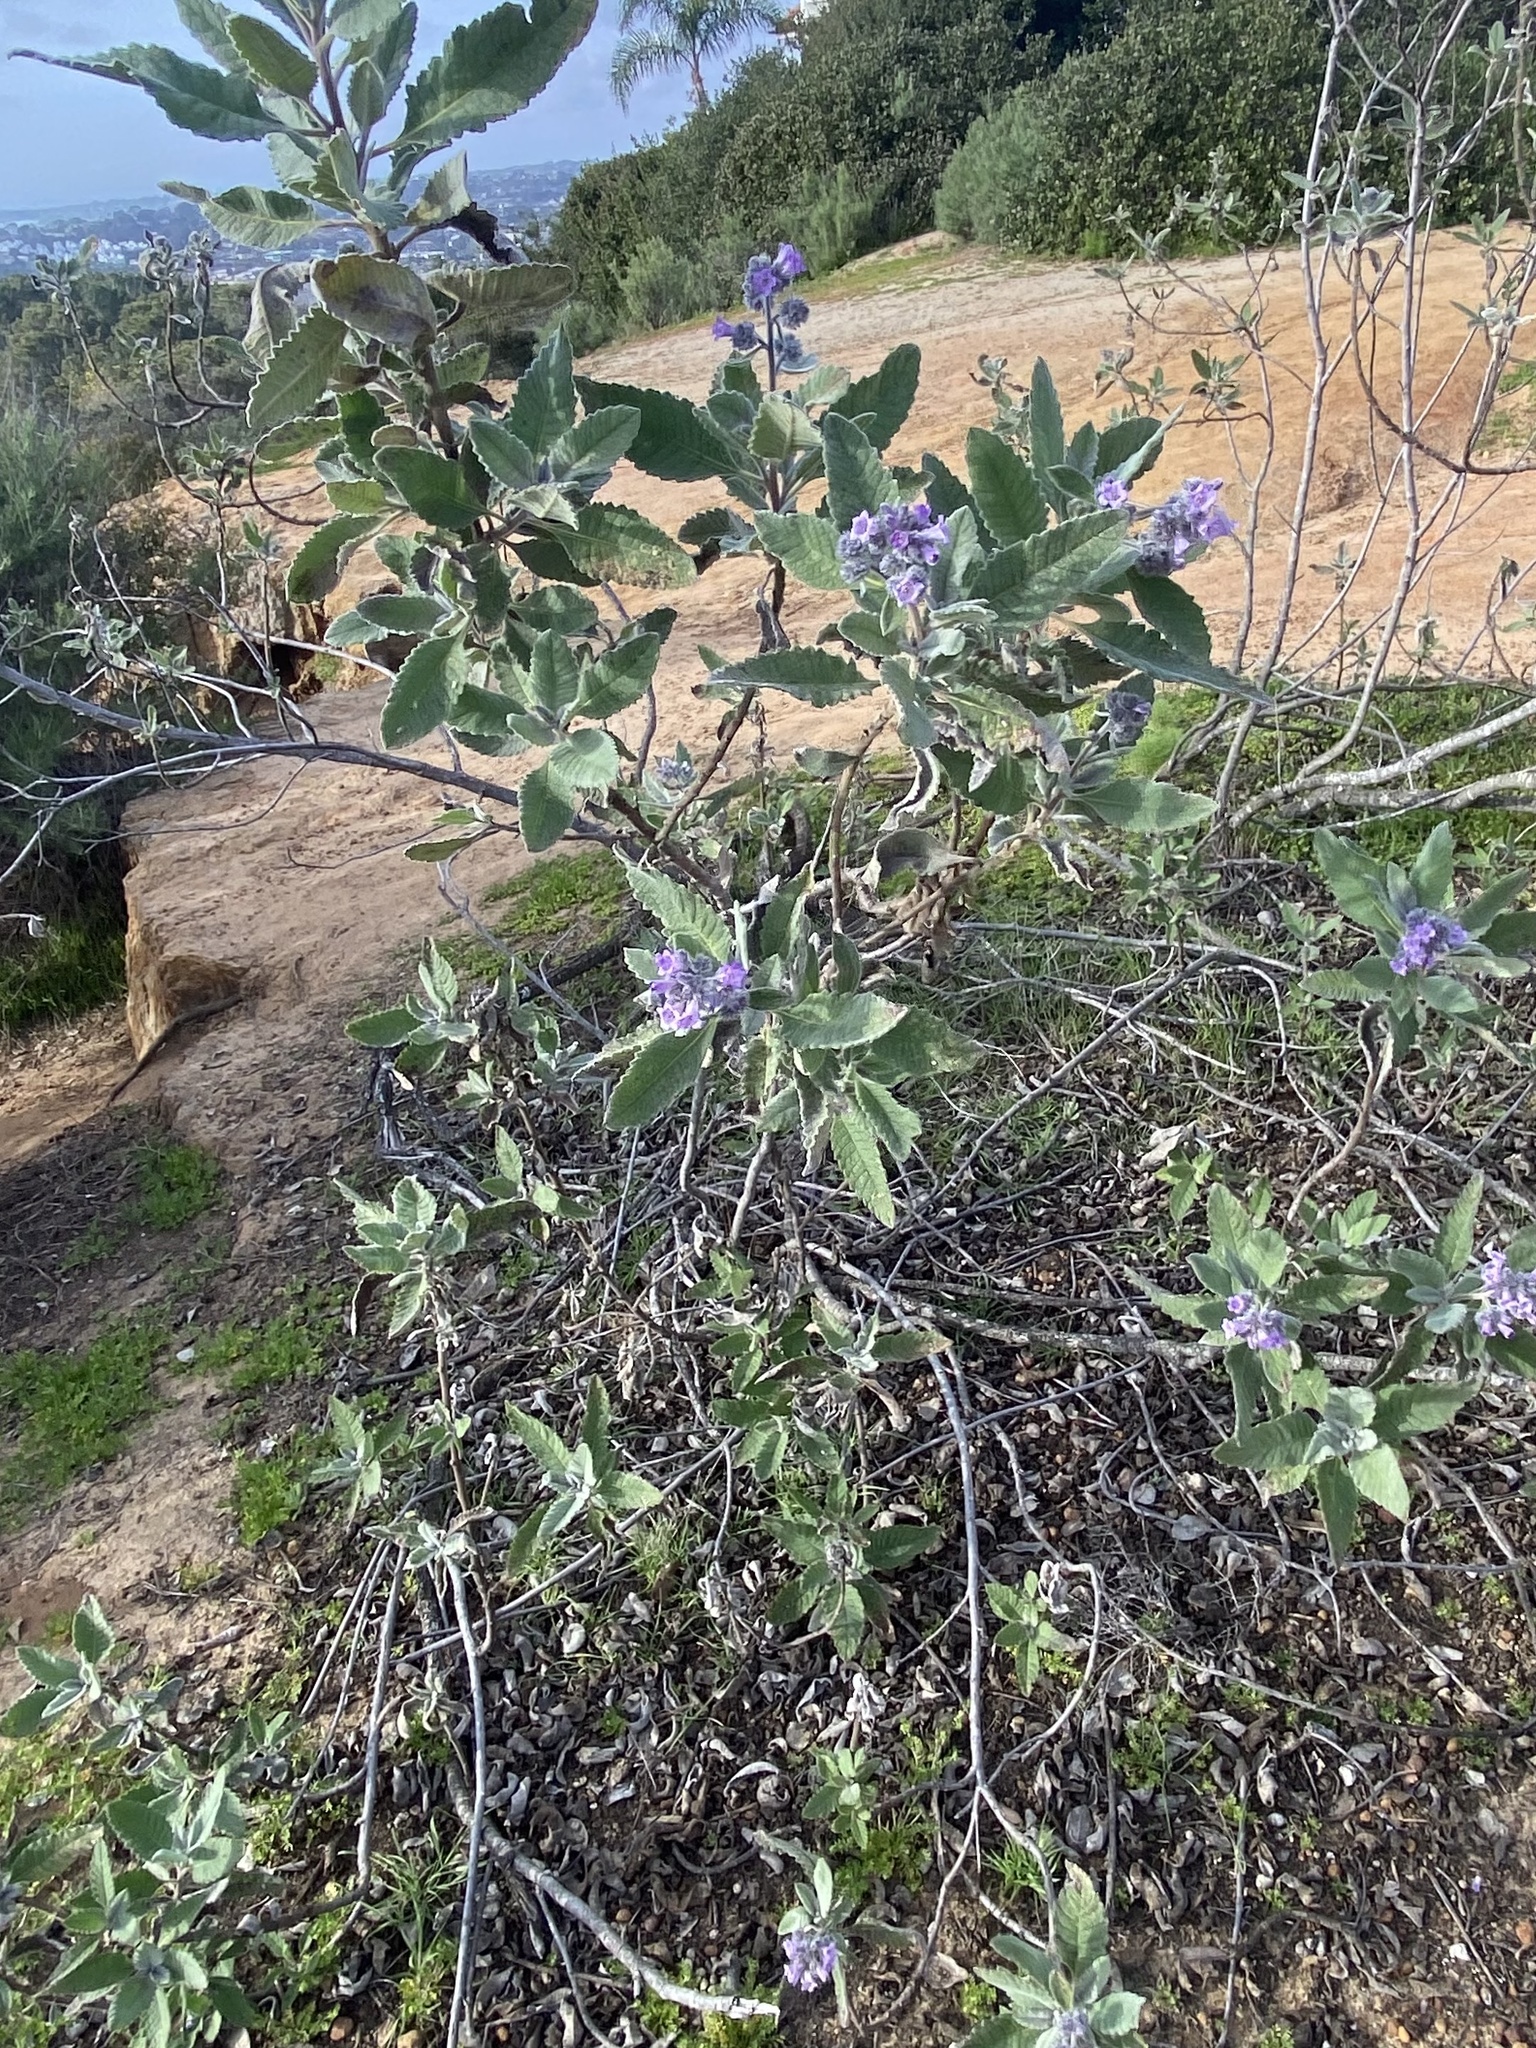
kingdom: Plantae
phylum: Tracheophyta
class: Magnoliopsida
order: Boraginales
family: Namaceae
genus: Eriodictyon
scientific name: Eriodictyon crassifolium
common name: Thick-leaf yerba-santa
